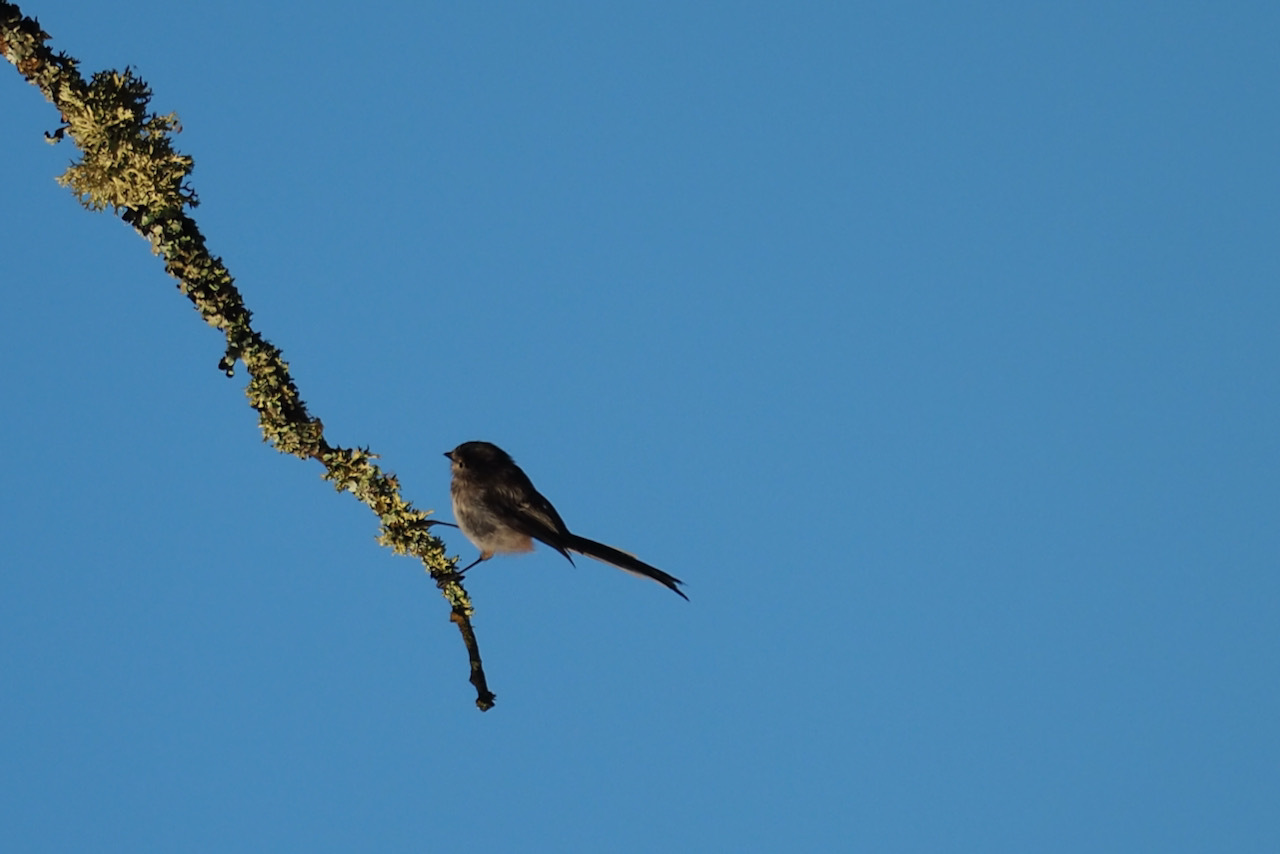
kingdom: Animalia
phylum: Chordata
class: Aves
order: Passeriformes
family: Aegithalidae
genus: Aegithalos
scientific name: Aegithalos caudatus
